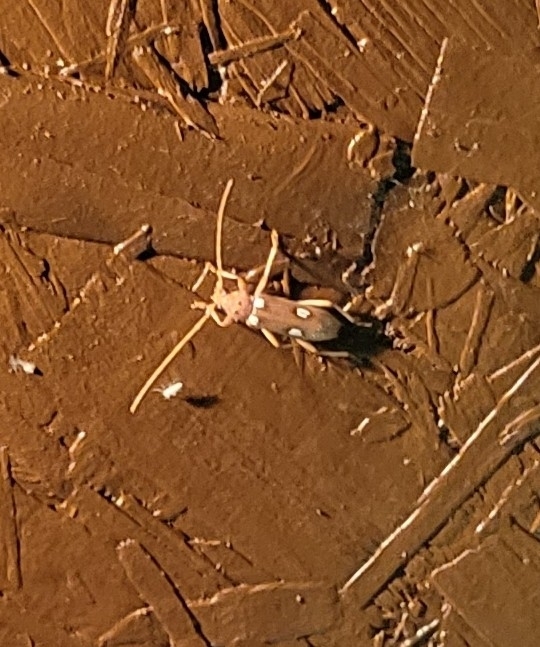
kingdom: Animalia
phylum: Arthropoda
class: Insecta
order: Coleoptera
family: Cerambycidae
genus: Eburia
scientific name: Eburia quadrigeminata
